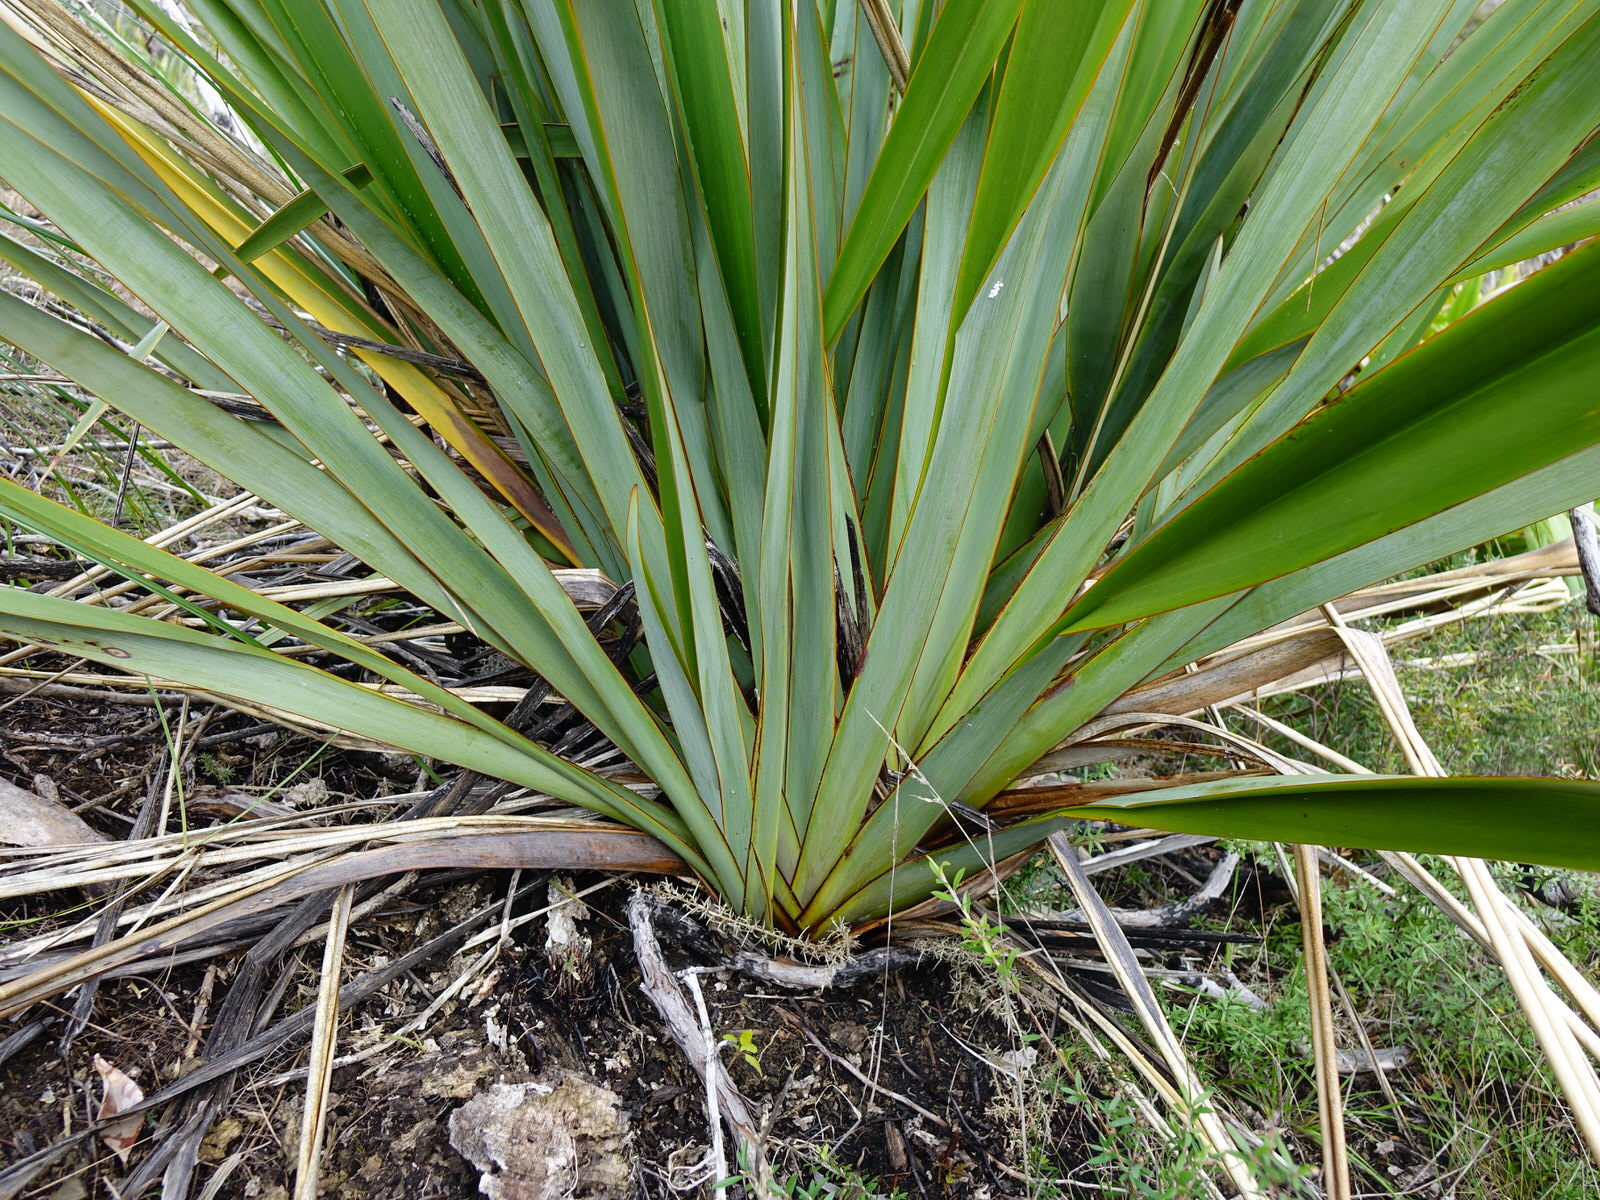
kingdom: Plantae
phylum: Tracheophyta
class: Liliopsida
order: Asparagales
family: Asphodelaceae
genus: Phormium
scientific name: Phormium tenax
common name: New zealand flax
